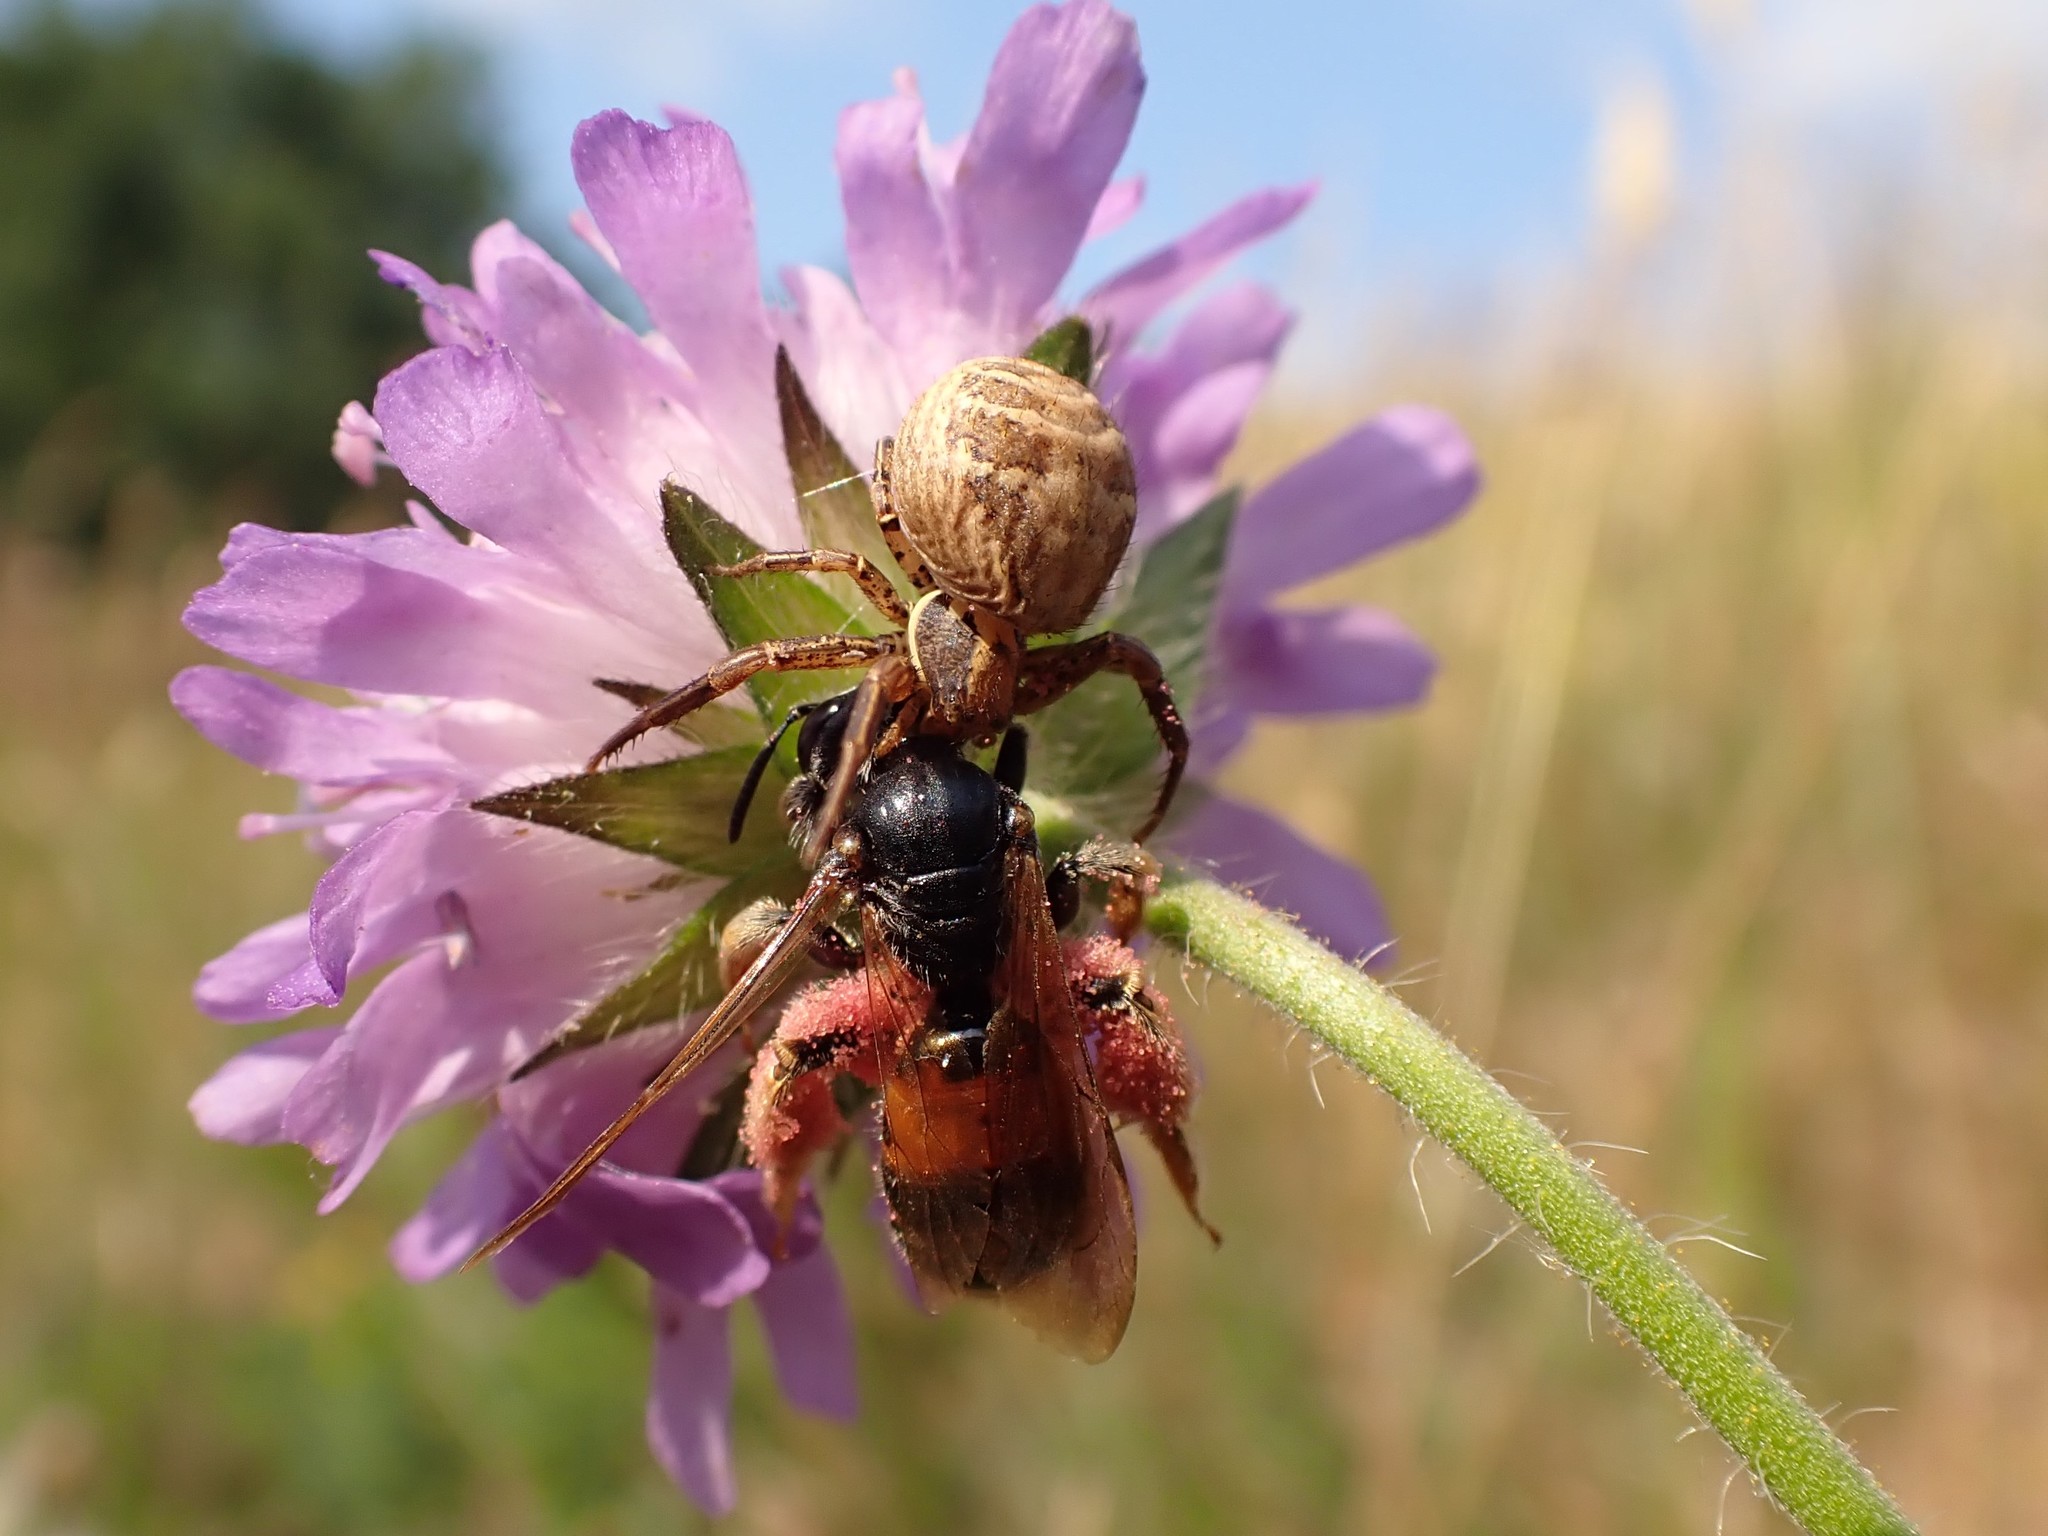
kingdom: Animalia
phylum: Arthropoda
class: Insecta
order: Hymenoptera
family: Andrenidae
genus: Andrena
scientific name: Andrena hattorfiana
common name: Large scabious mining bee
